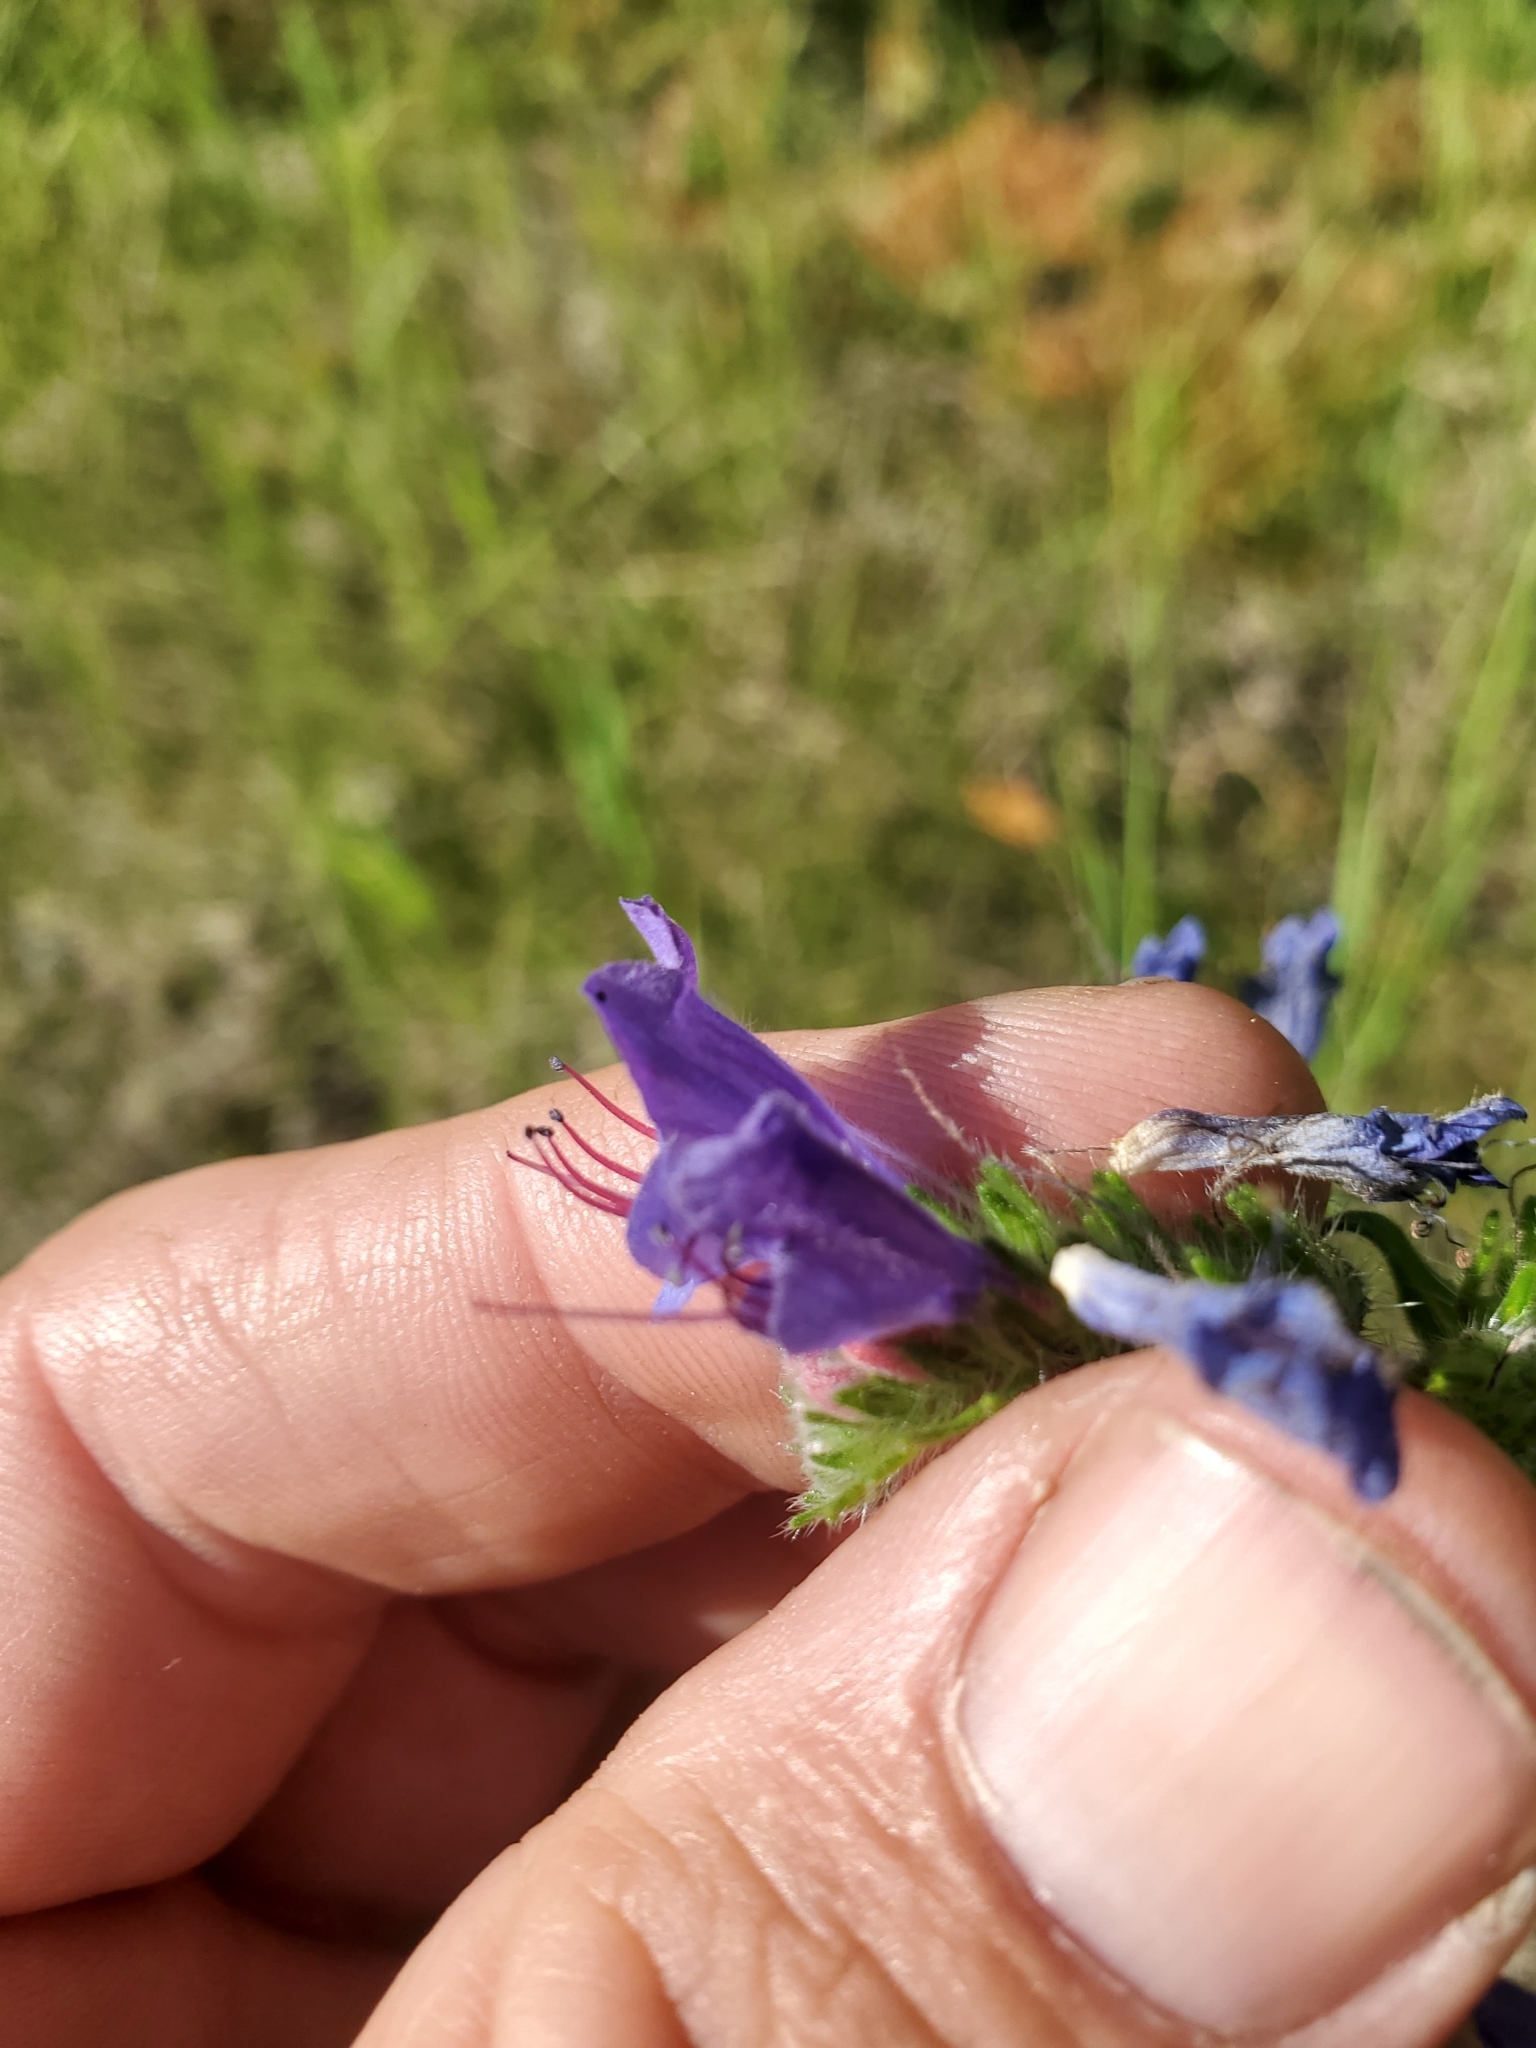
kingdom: Plantae
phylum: Tracheophyta
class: Magnoliopsida
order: Boraginales
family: Boraginaceae
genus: Echium
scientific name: Echium vulgare
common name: Common viper's bugloss
